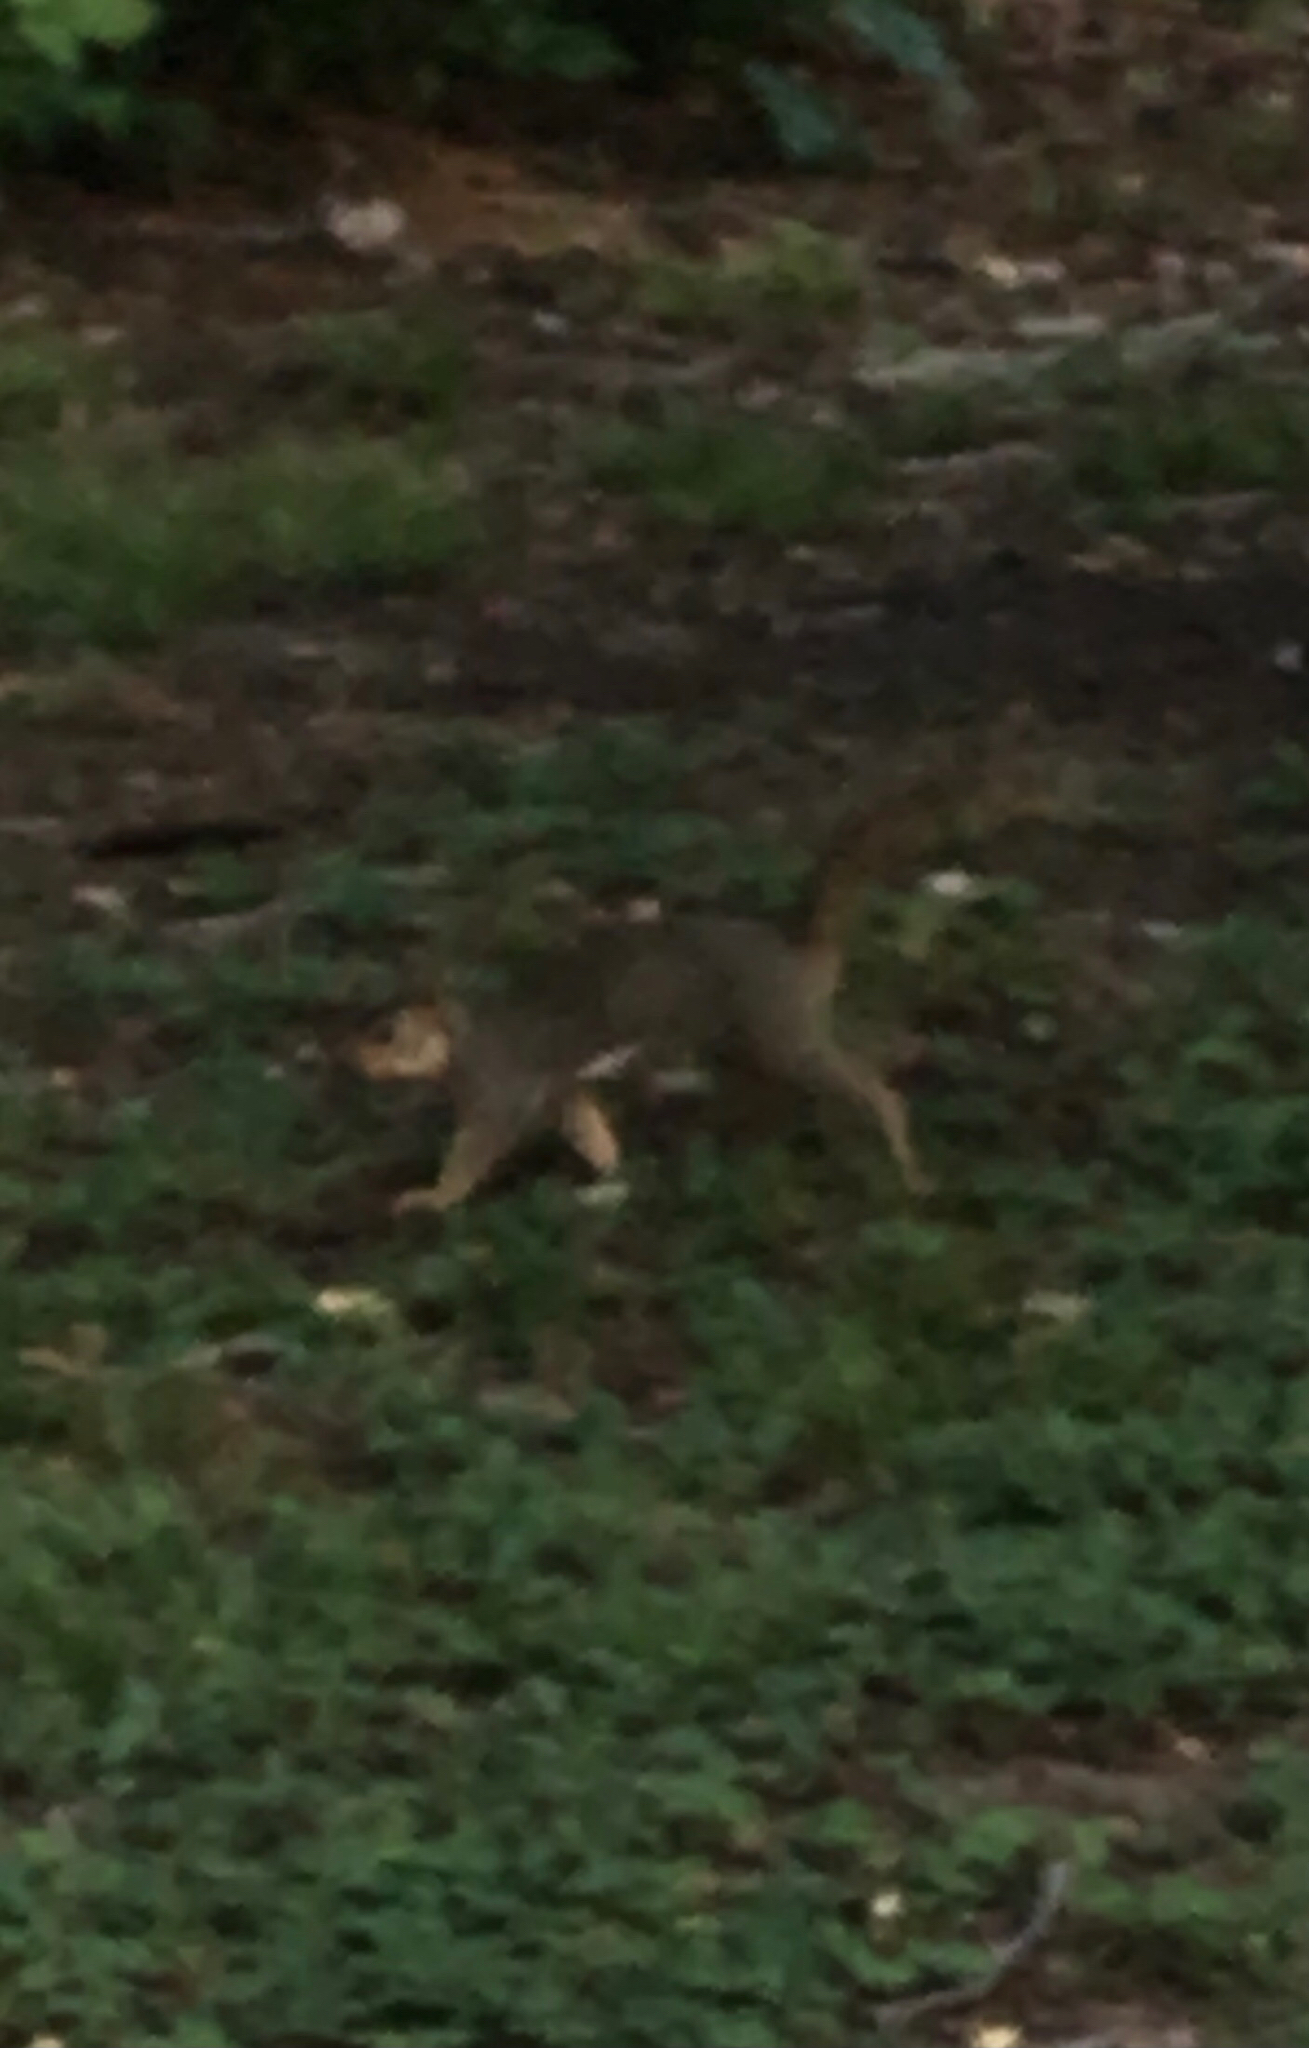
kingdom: Animalia
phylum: Chordata
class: Mammalia
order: Rodentia
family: Sciuridae
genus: Sciurus
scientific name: Sciurus niger
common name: Fox squirrel
